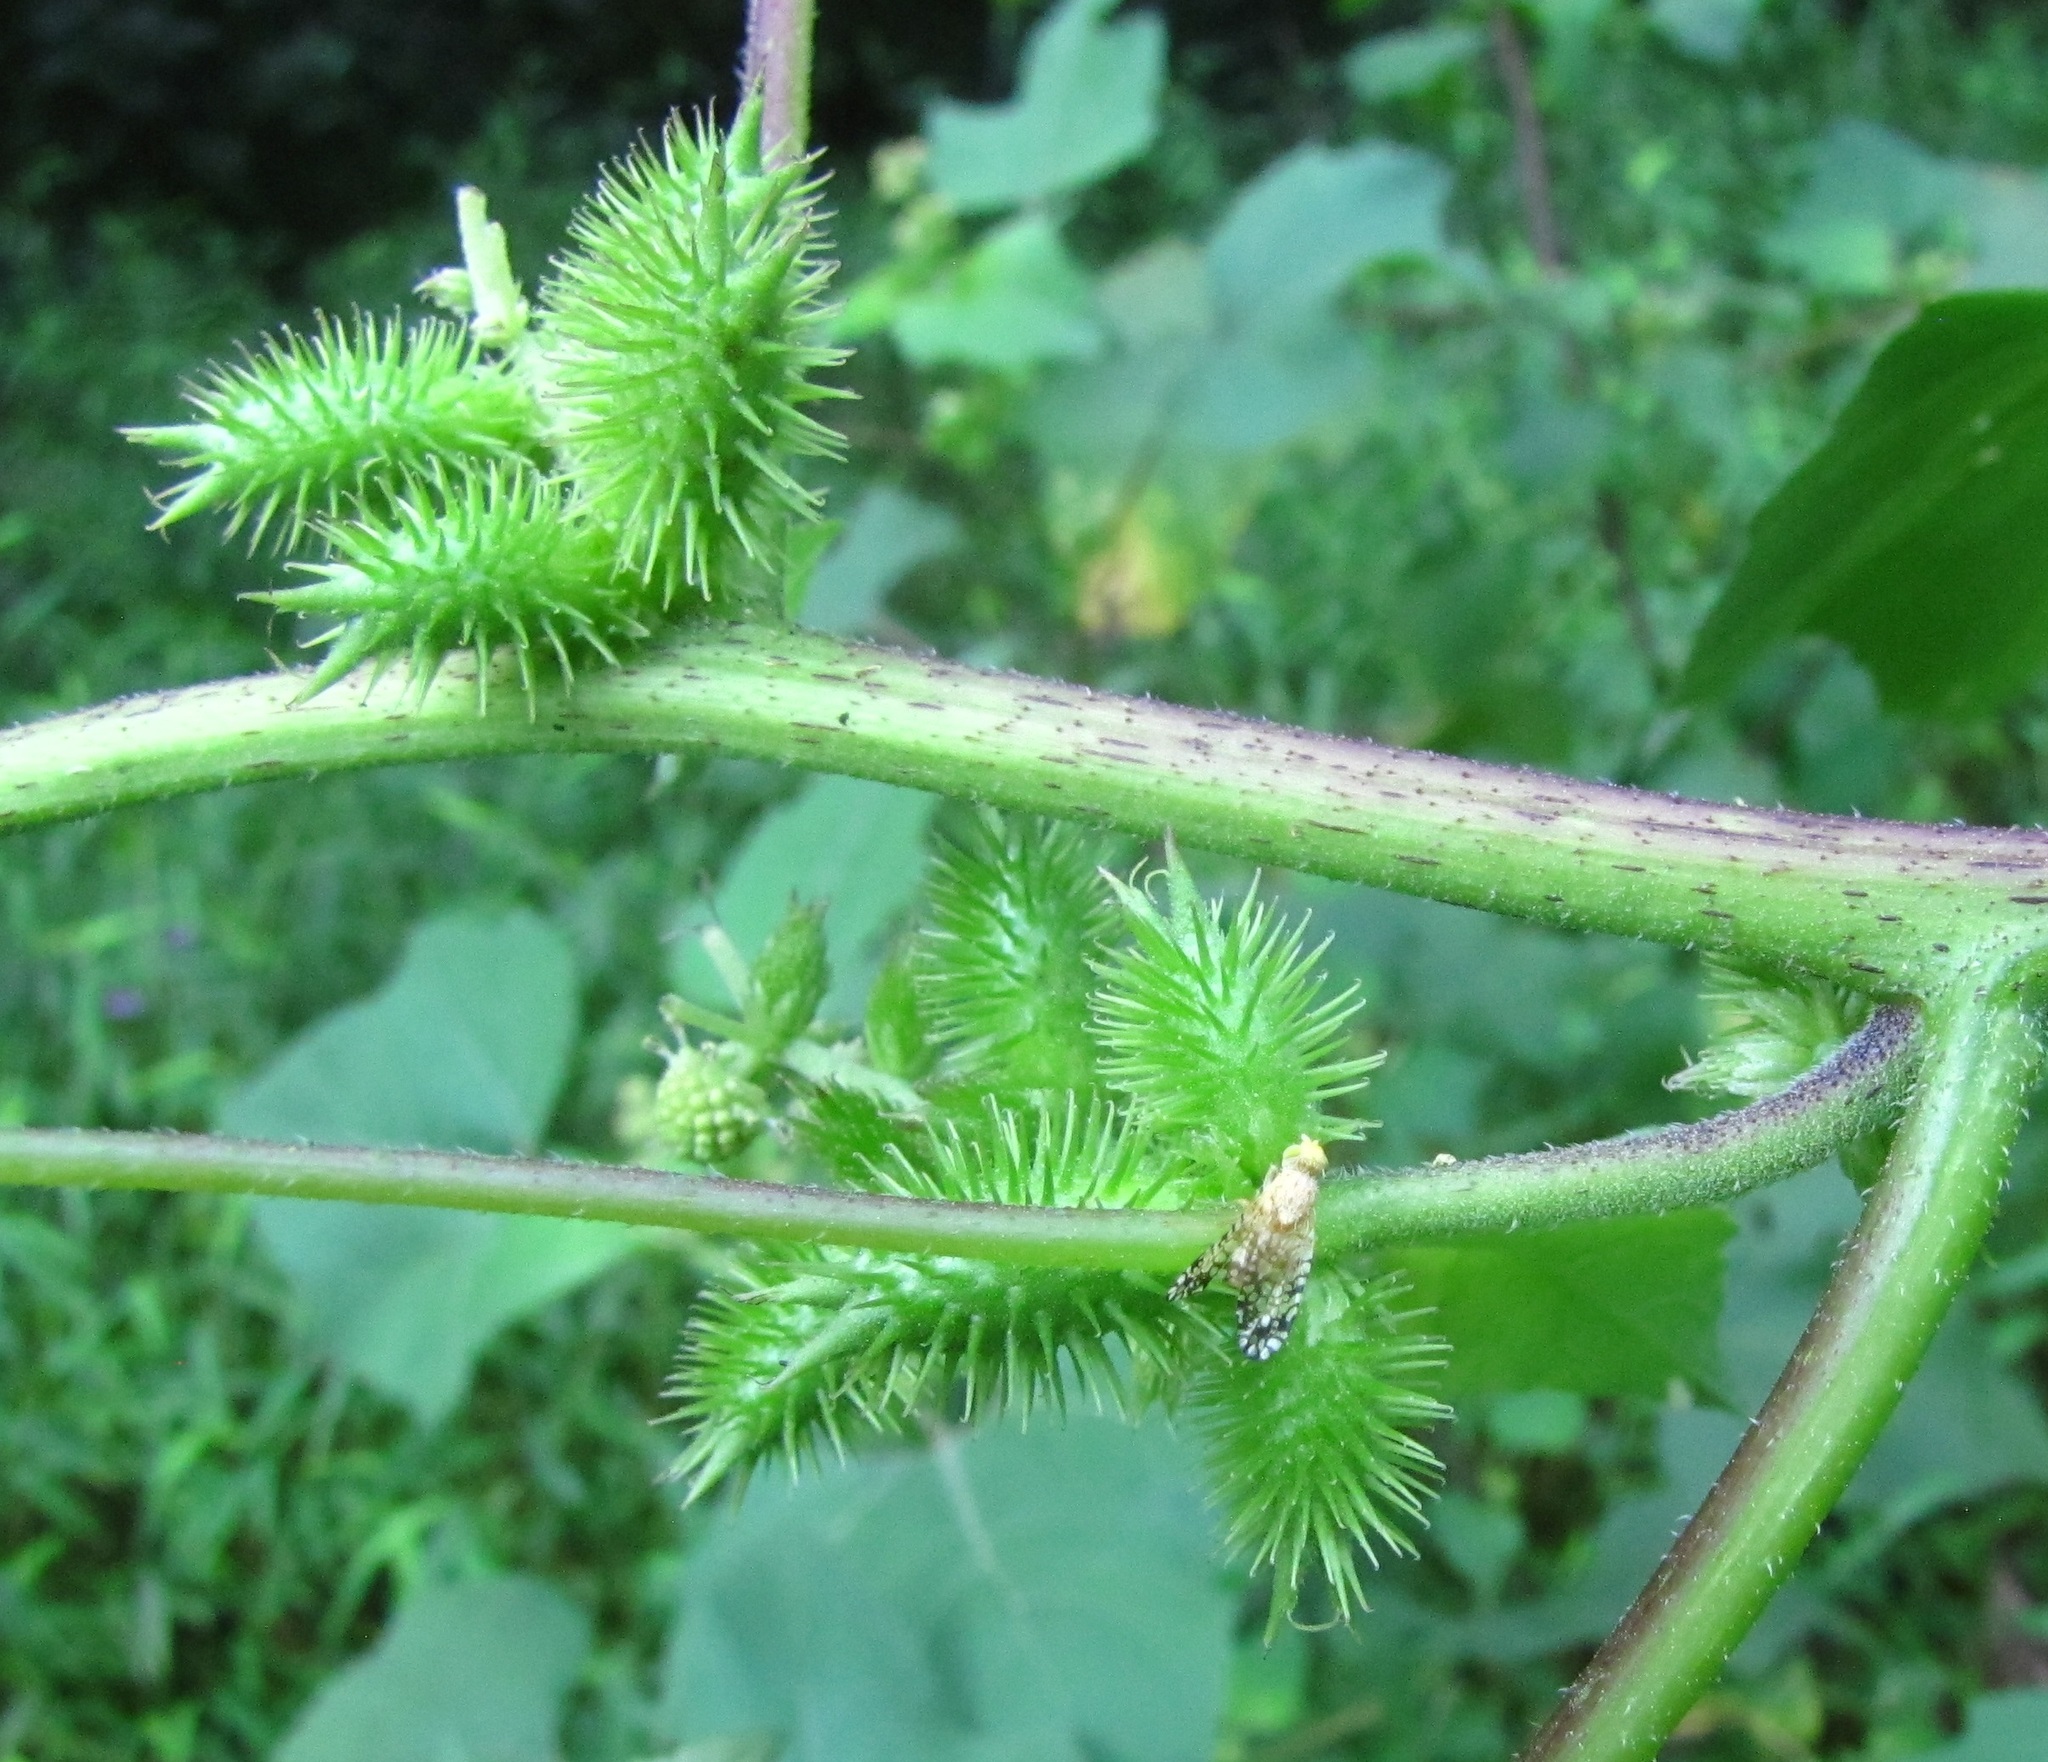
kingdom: Animalia
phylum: Arthropoda
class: Insecta
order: Diptera
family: Tephritidae
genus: Euaresta
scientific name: Euaresta aequalis
